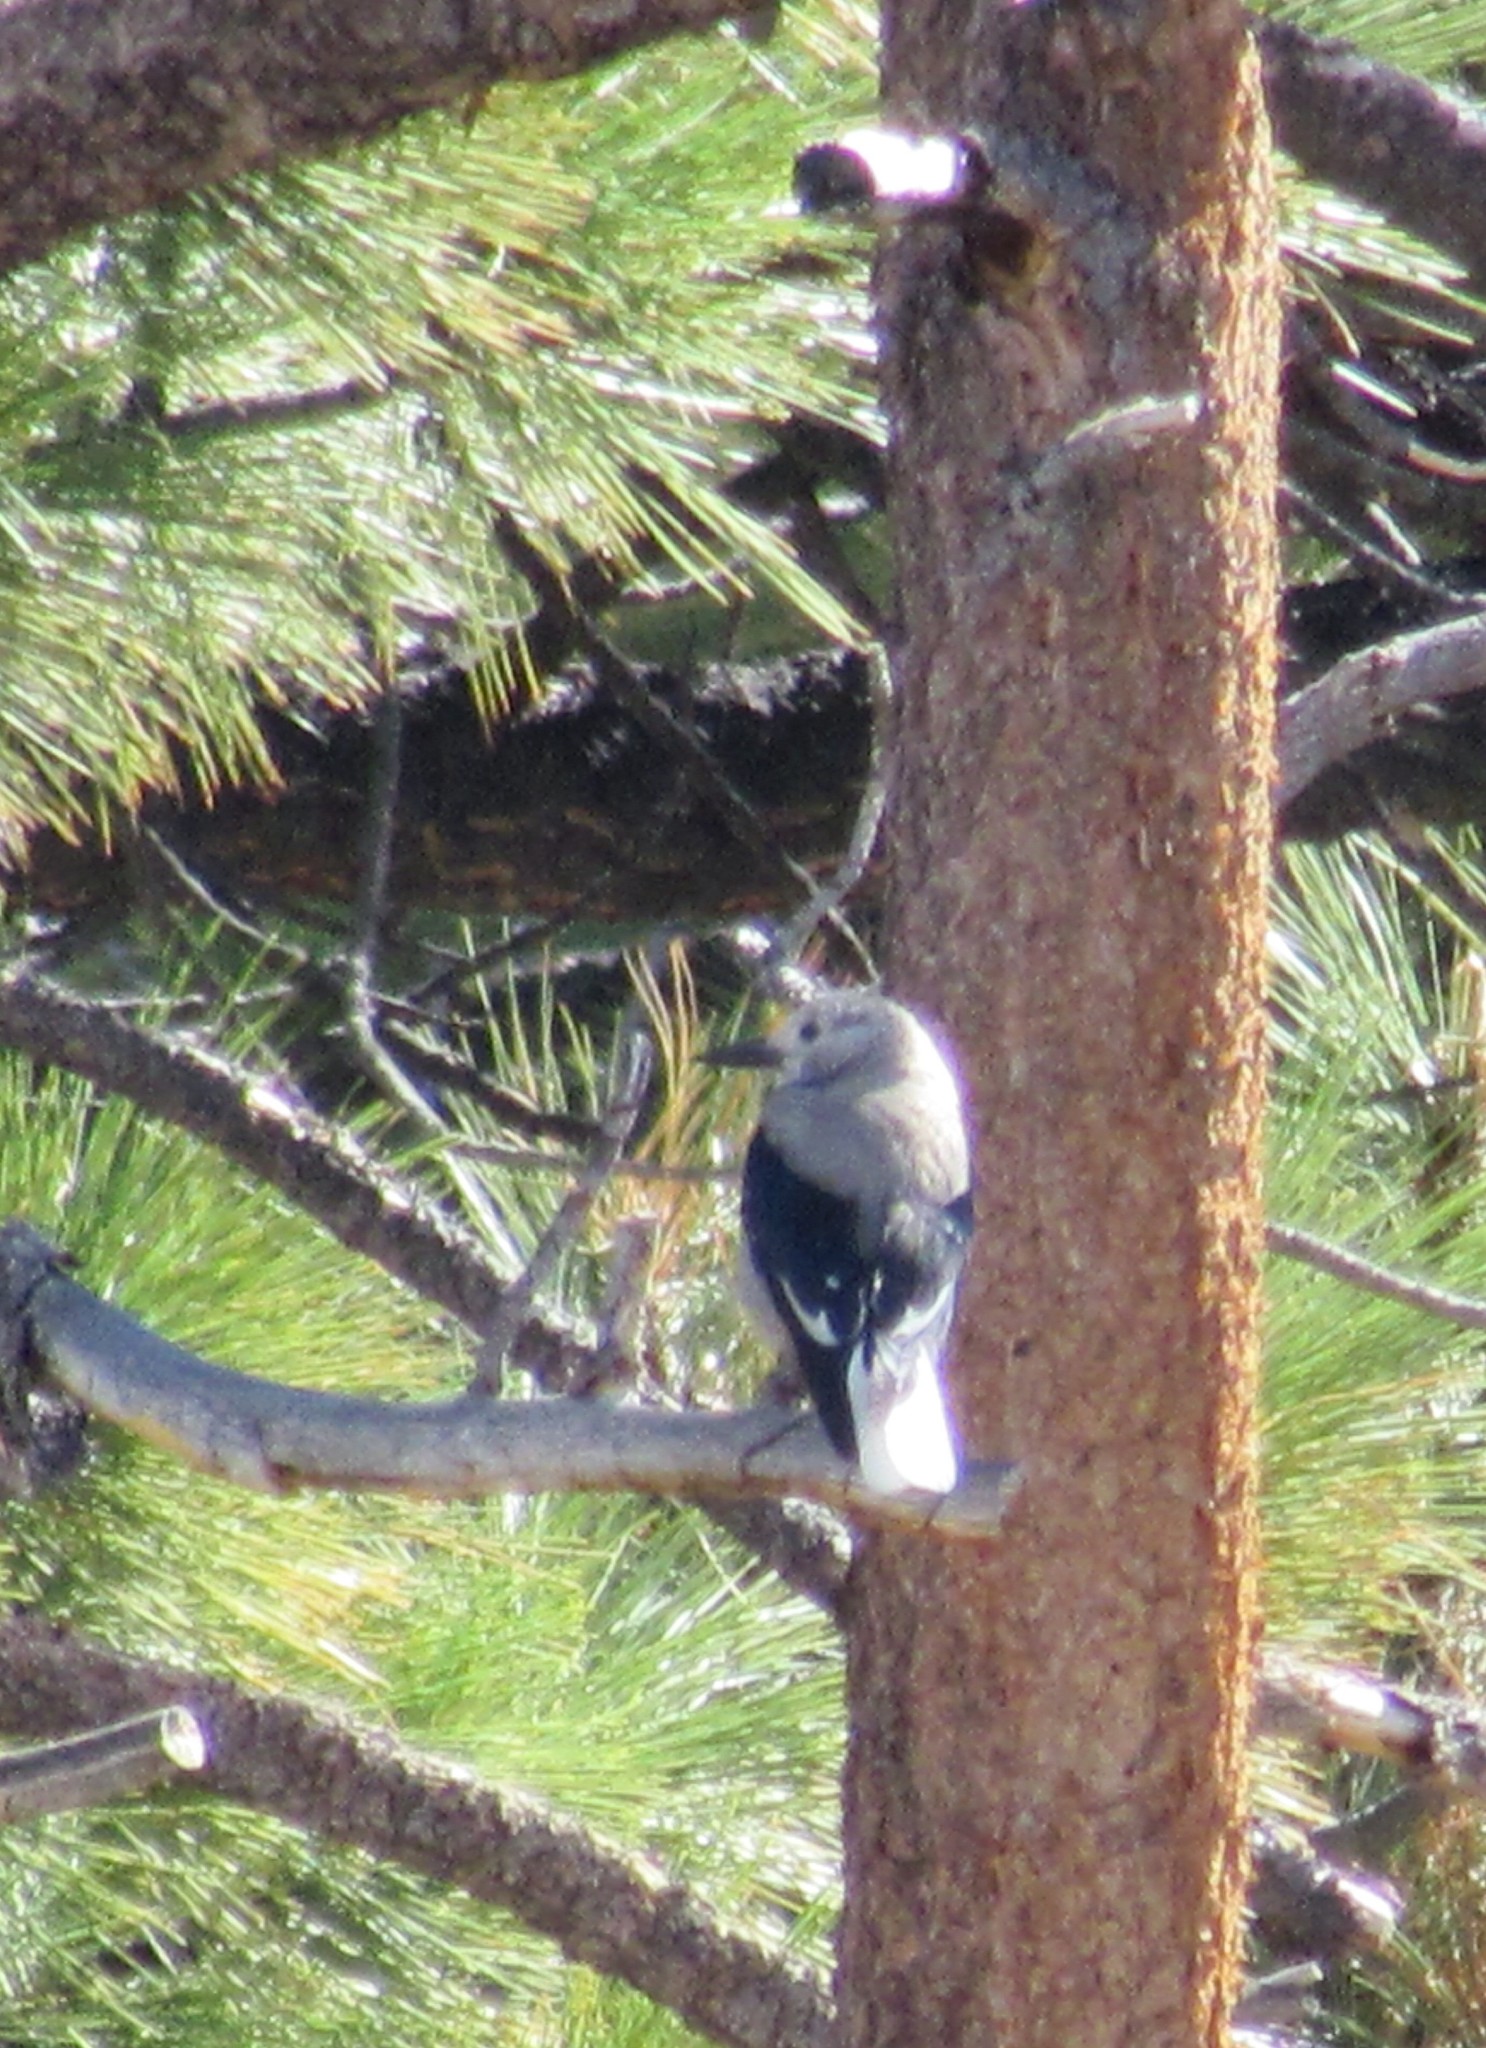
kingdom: Animalia
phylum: Chordata
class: Aves
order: Passeriformes
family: Corvidae
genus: Nucifraga
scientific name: Nucifraga columbiana
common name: Clark's nutcracker
